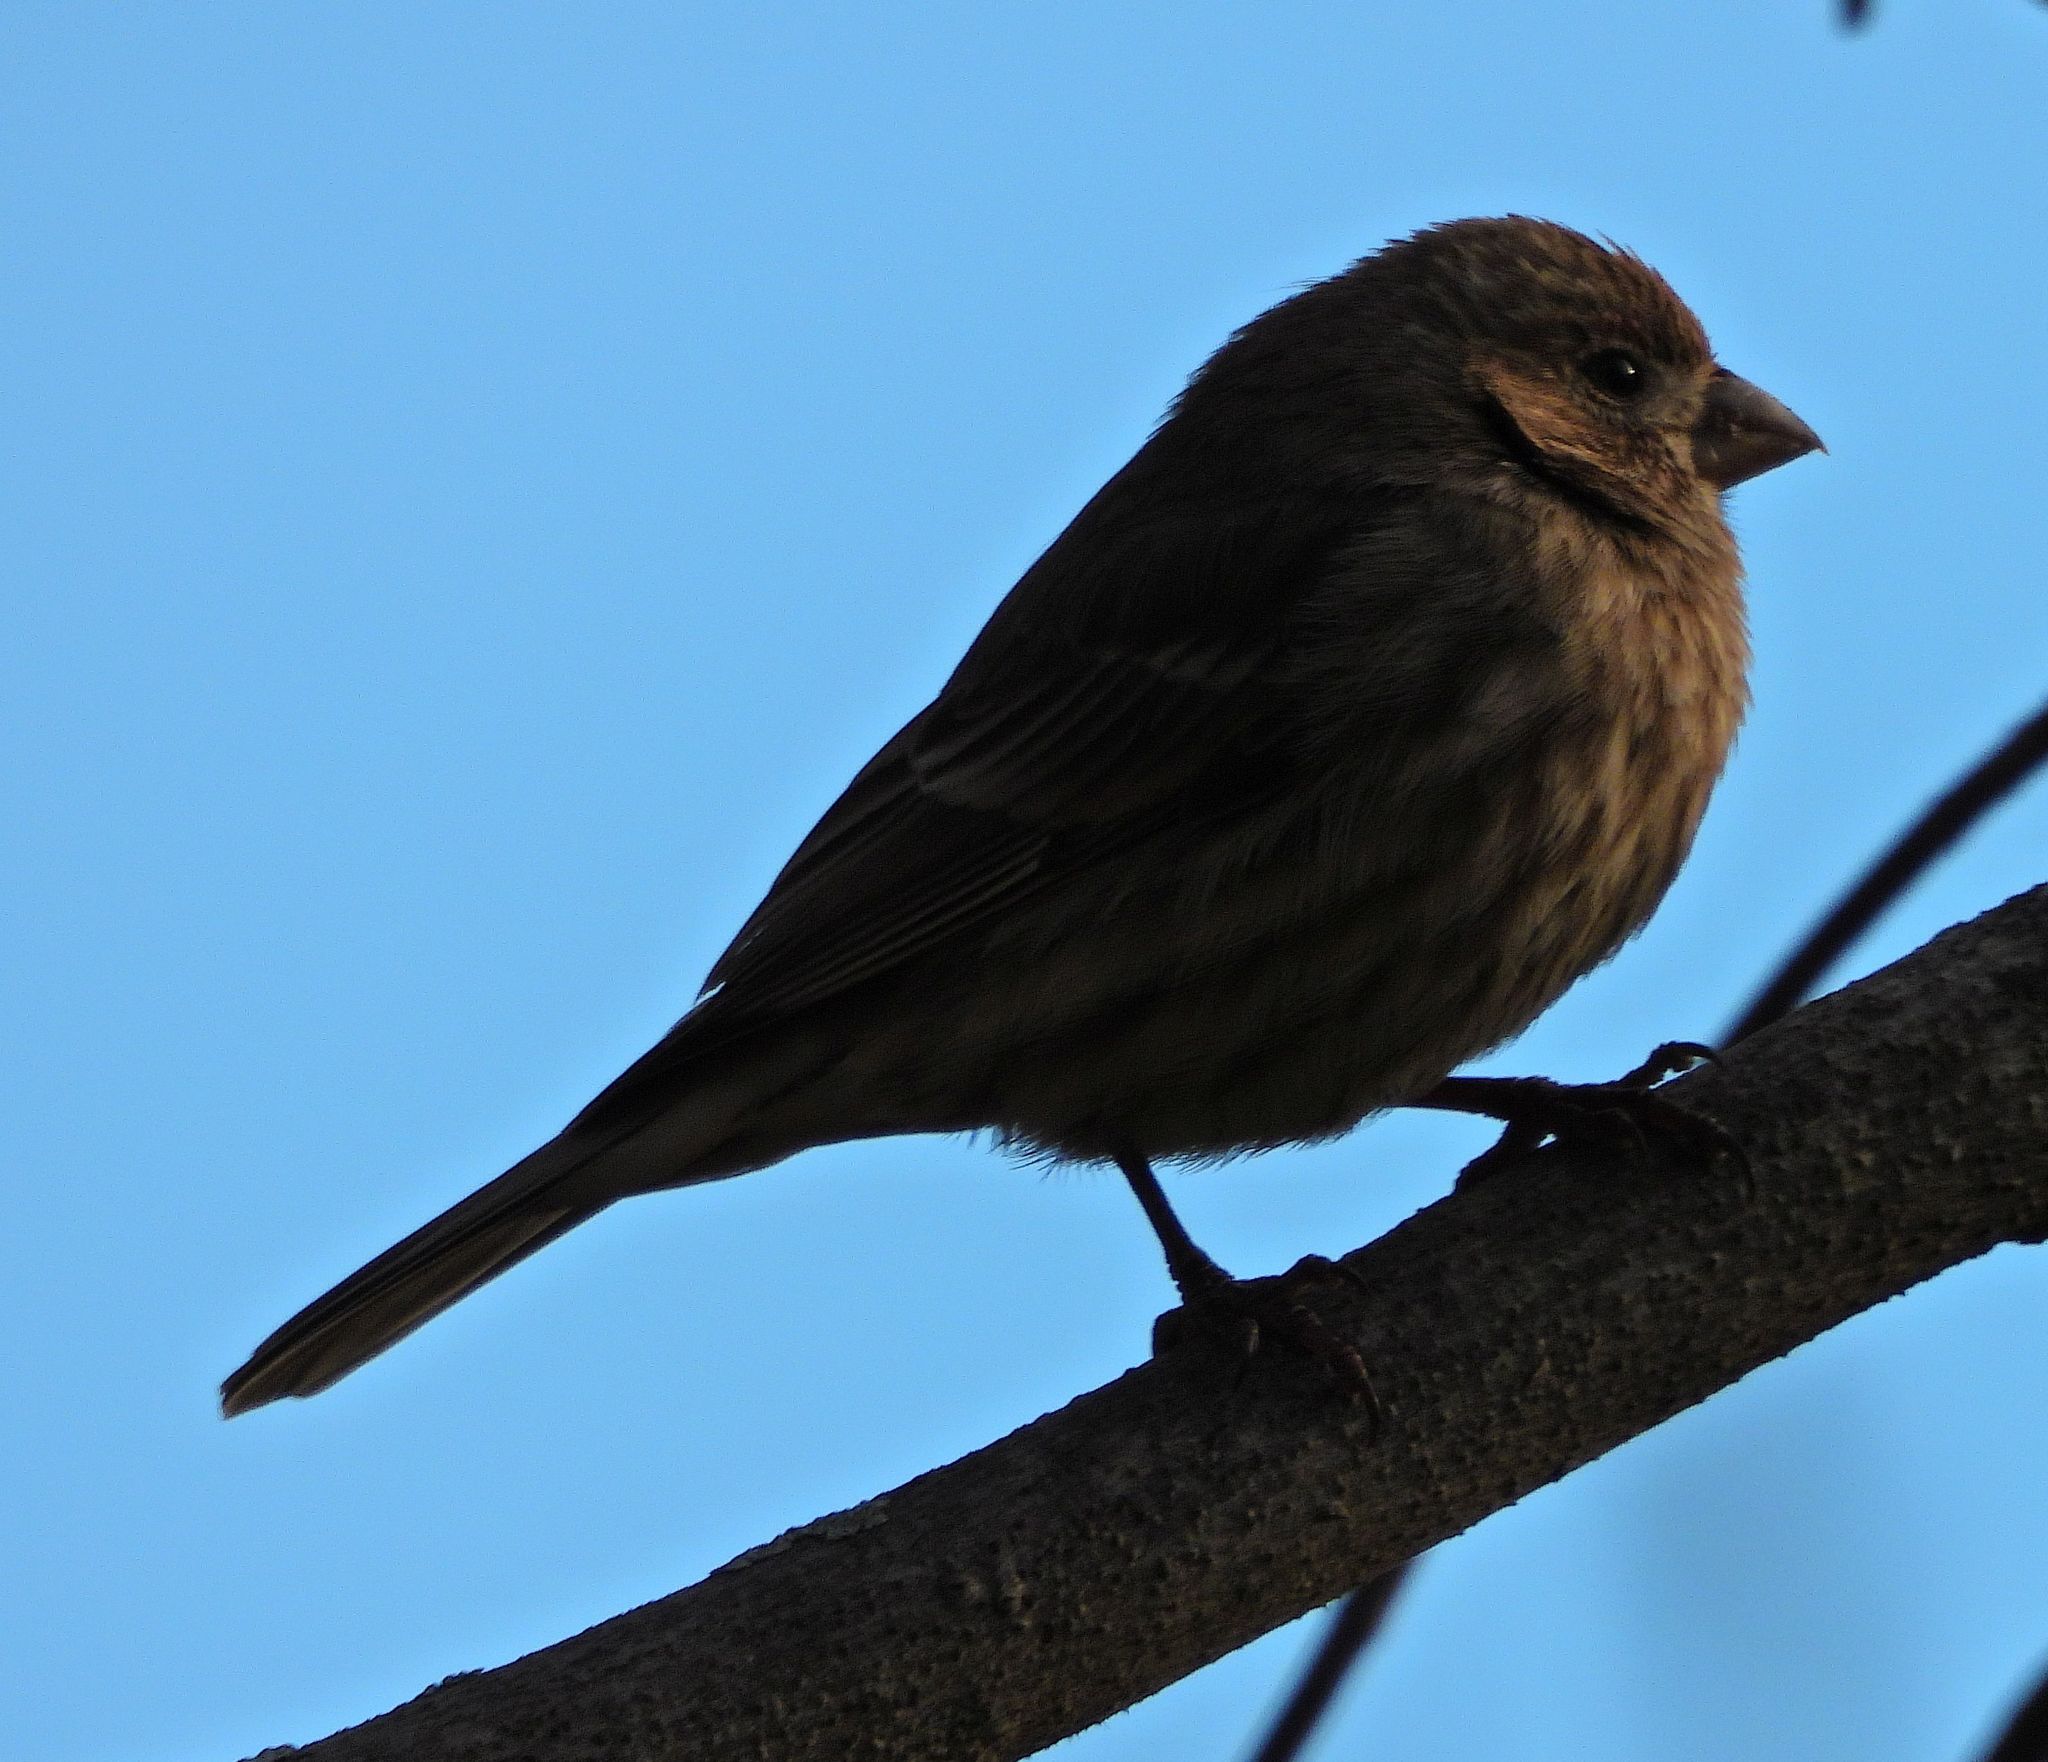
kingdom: Animalia
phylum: Chordata
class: Aves
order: Passeriformes
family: Fringillidae
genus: Haemorhous
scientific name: Haemorhous mexicanus
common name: House finch
